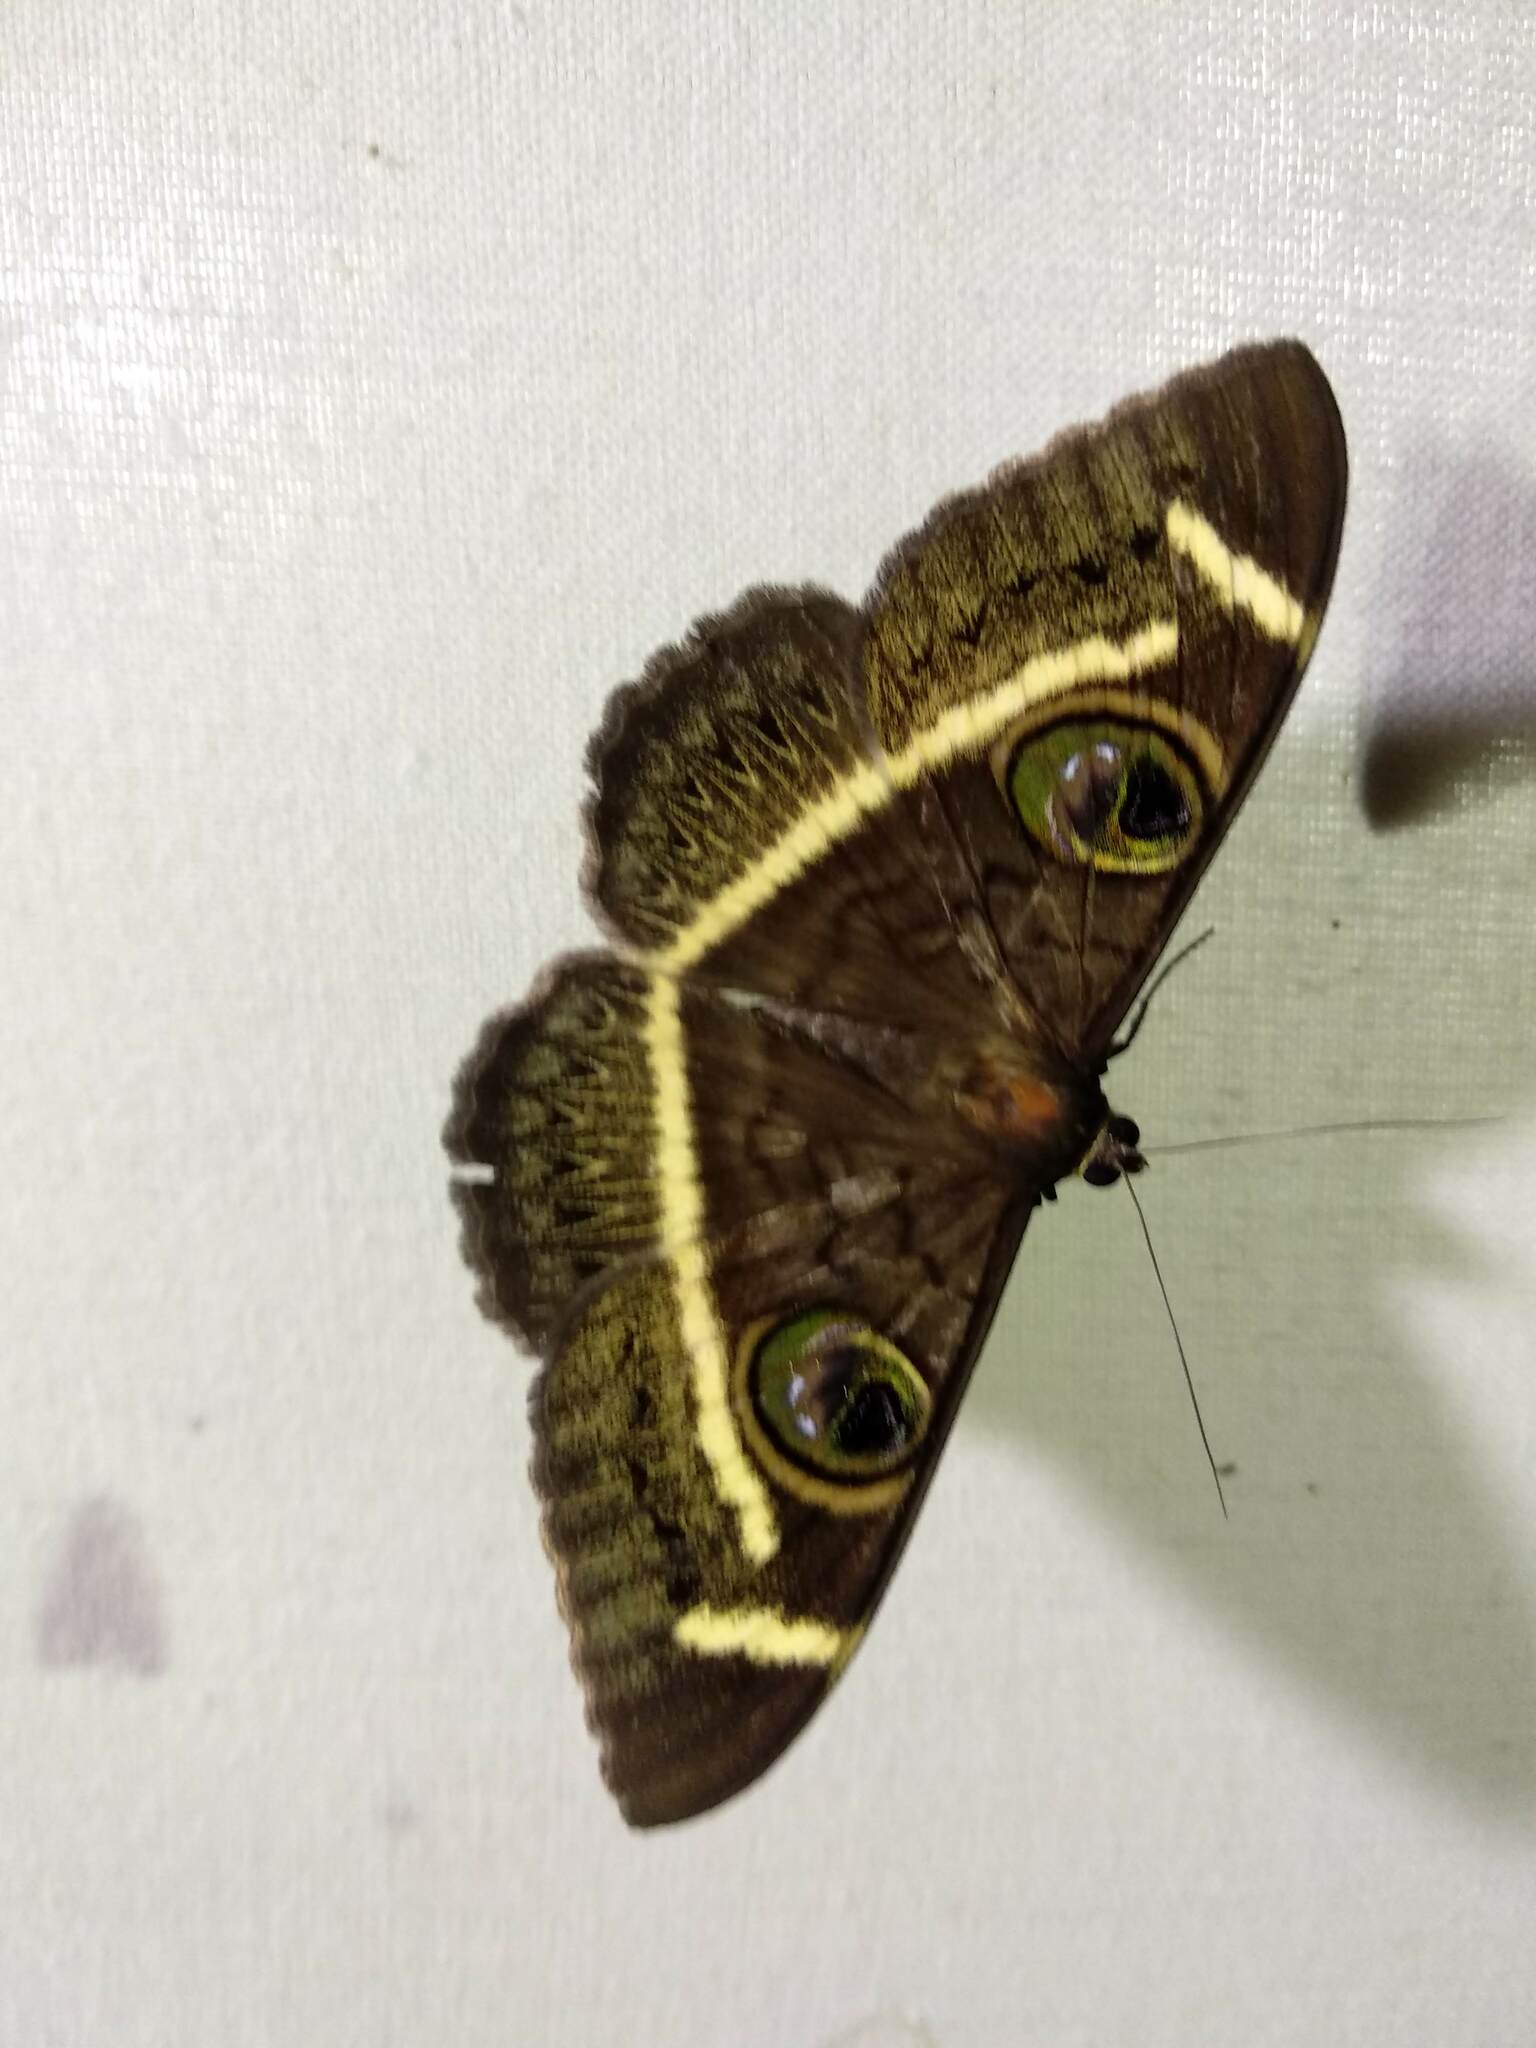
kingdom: Animalia
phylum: Arthropoda
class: Insecta
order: Lepidoptera
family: Erebidae
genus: Cyligramma
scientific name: Cyligramma latona
